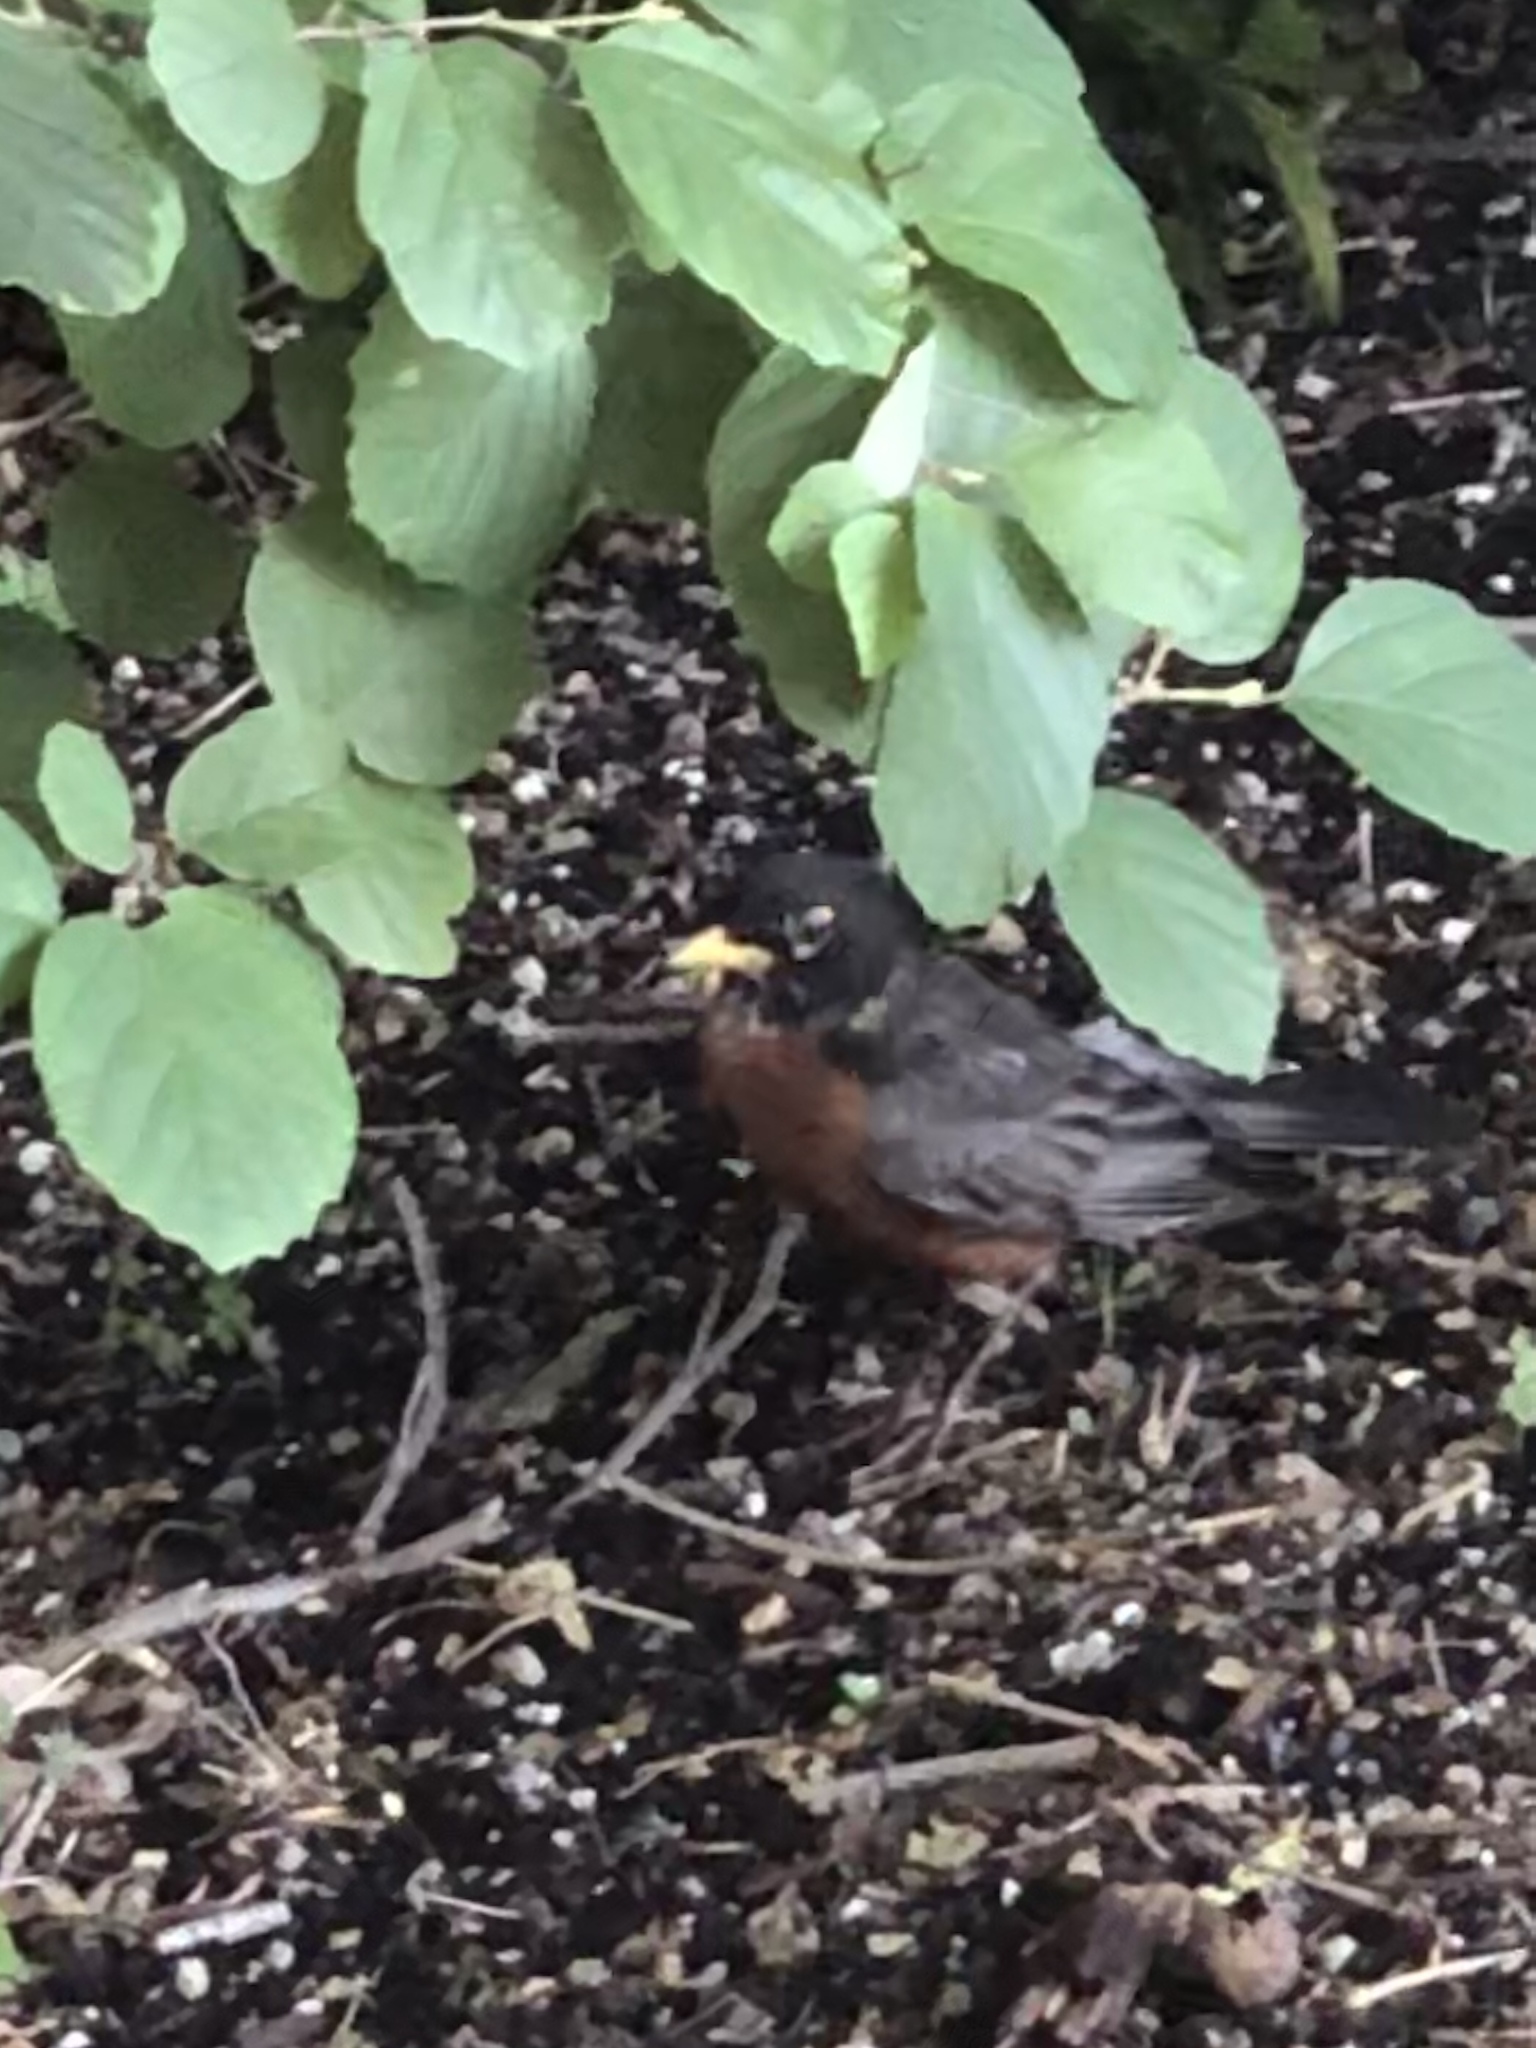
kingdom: Animalia
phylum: Chordata
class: Aves
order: Passeriformes
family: Turdidae
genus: Turdus
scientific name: Turdus migratorius
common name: American robin
